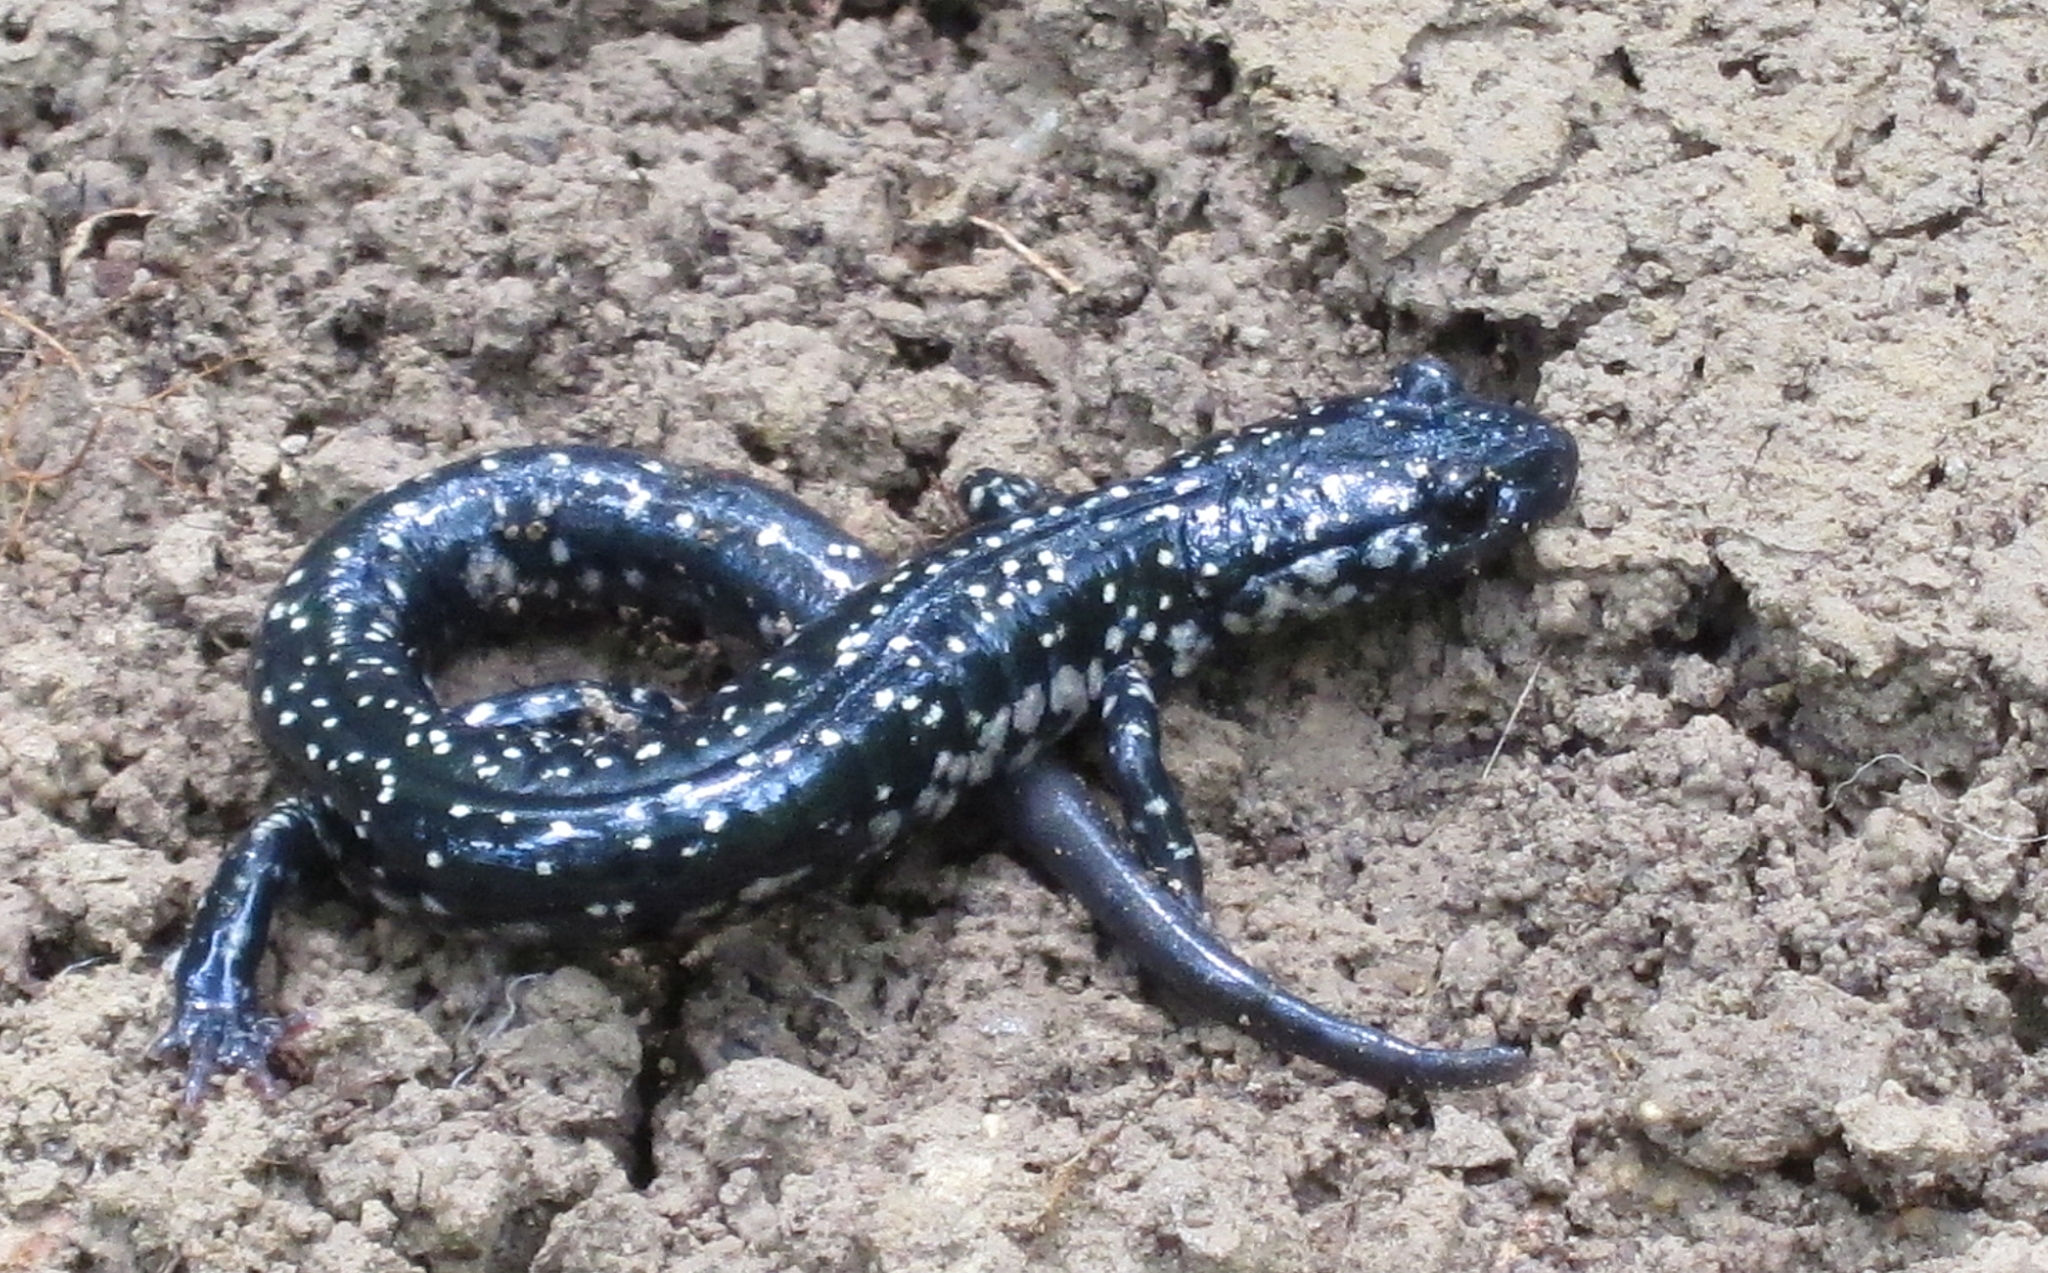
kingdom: Animalia
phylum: Chordata
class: Amphibia
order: Caudata
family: Plethodontidae
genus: Plethodon
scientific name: Plethodon glutinosus
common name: Northern slimy salamander
